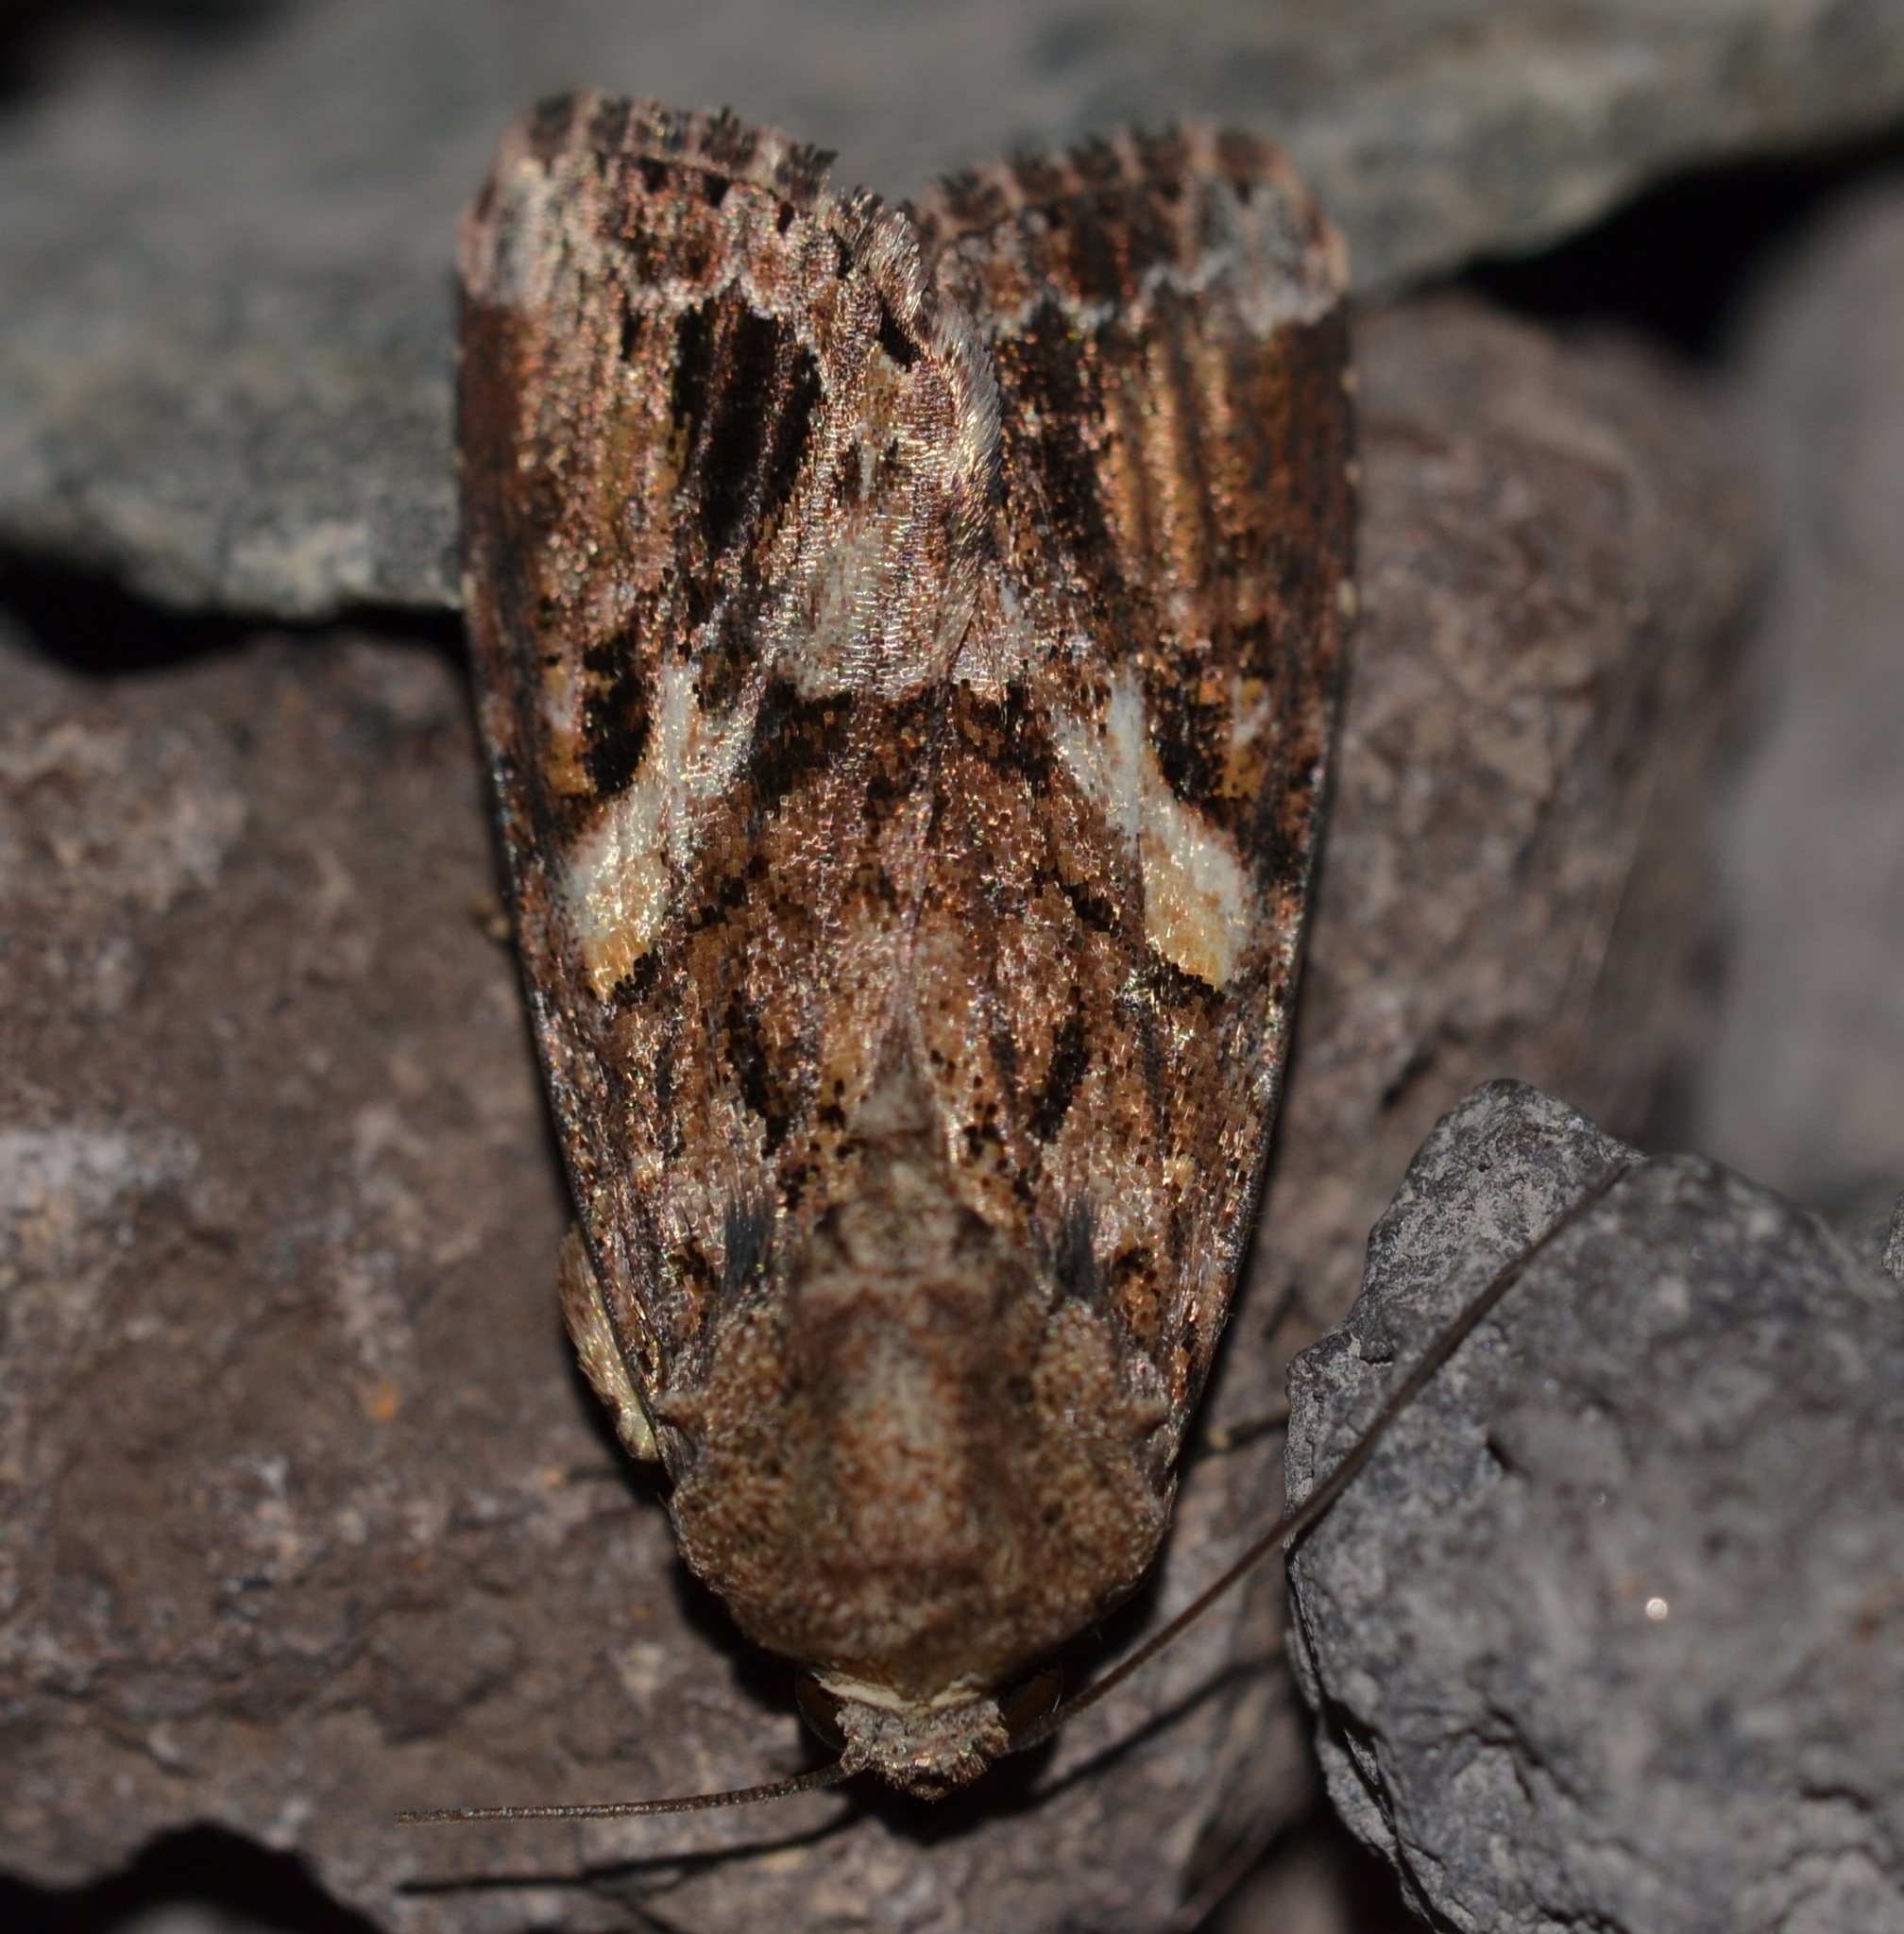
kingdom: Animalia
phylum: Arthropoda
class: Insecta
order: Lepidoptera
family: Noctuidae
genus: Spodoptera
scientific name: Spodoptera mauritia
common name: Lawn armyworm
